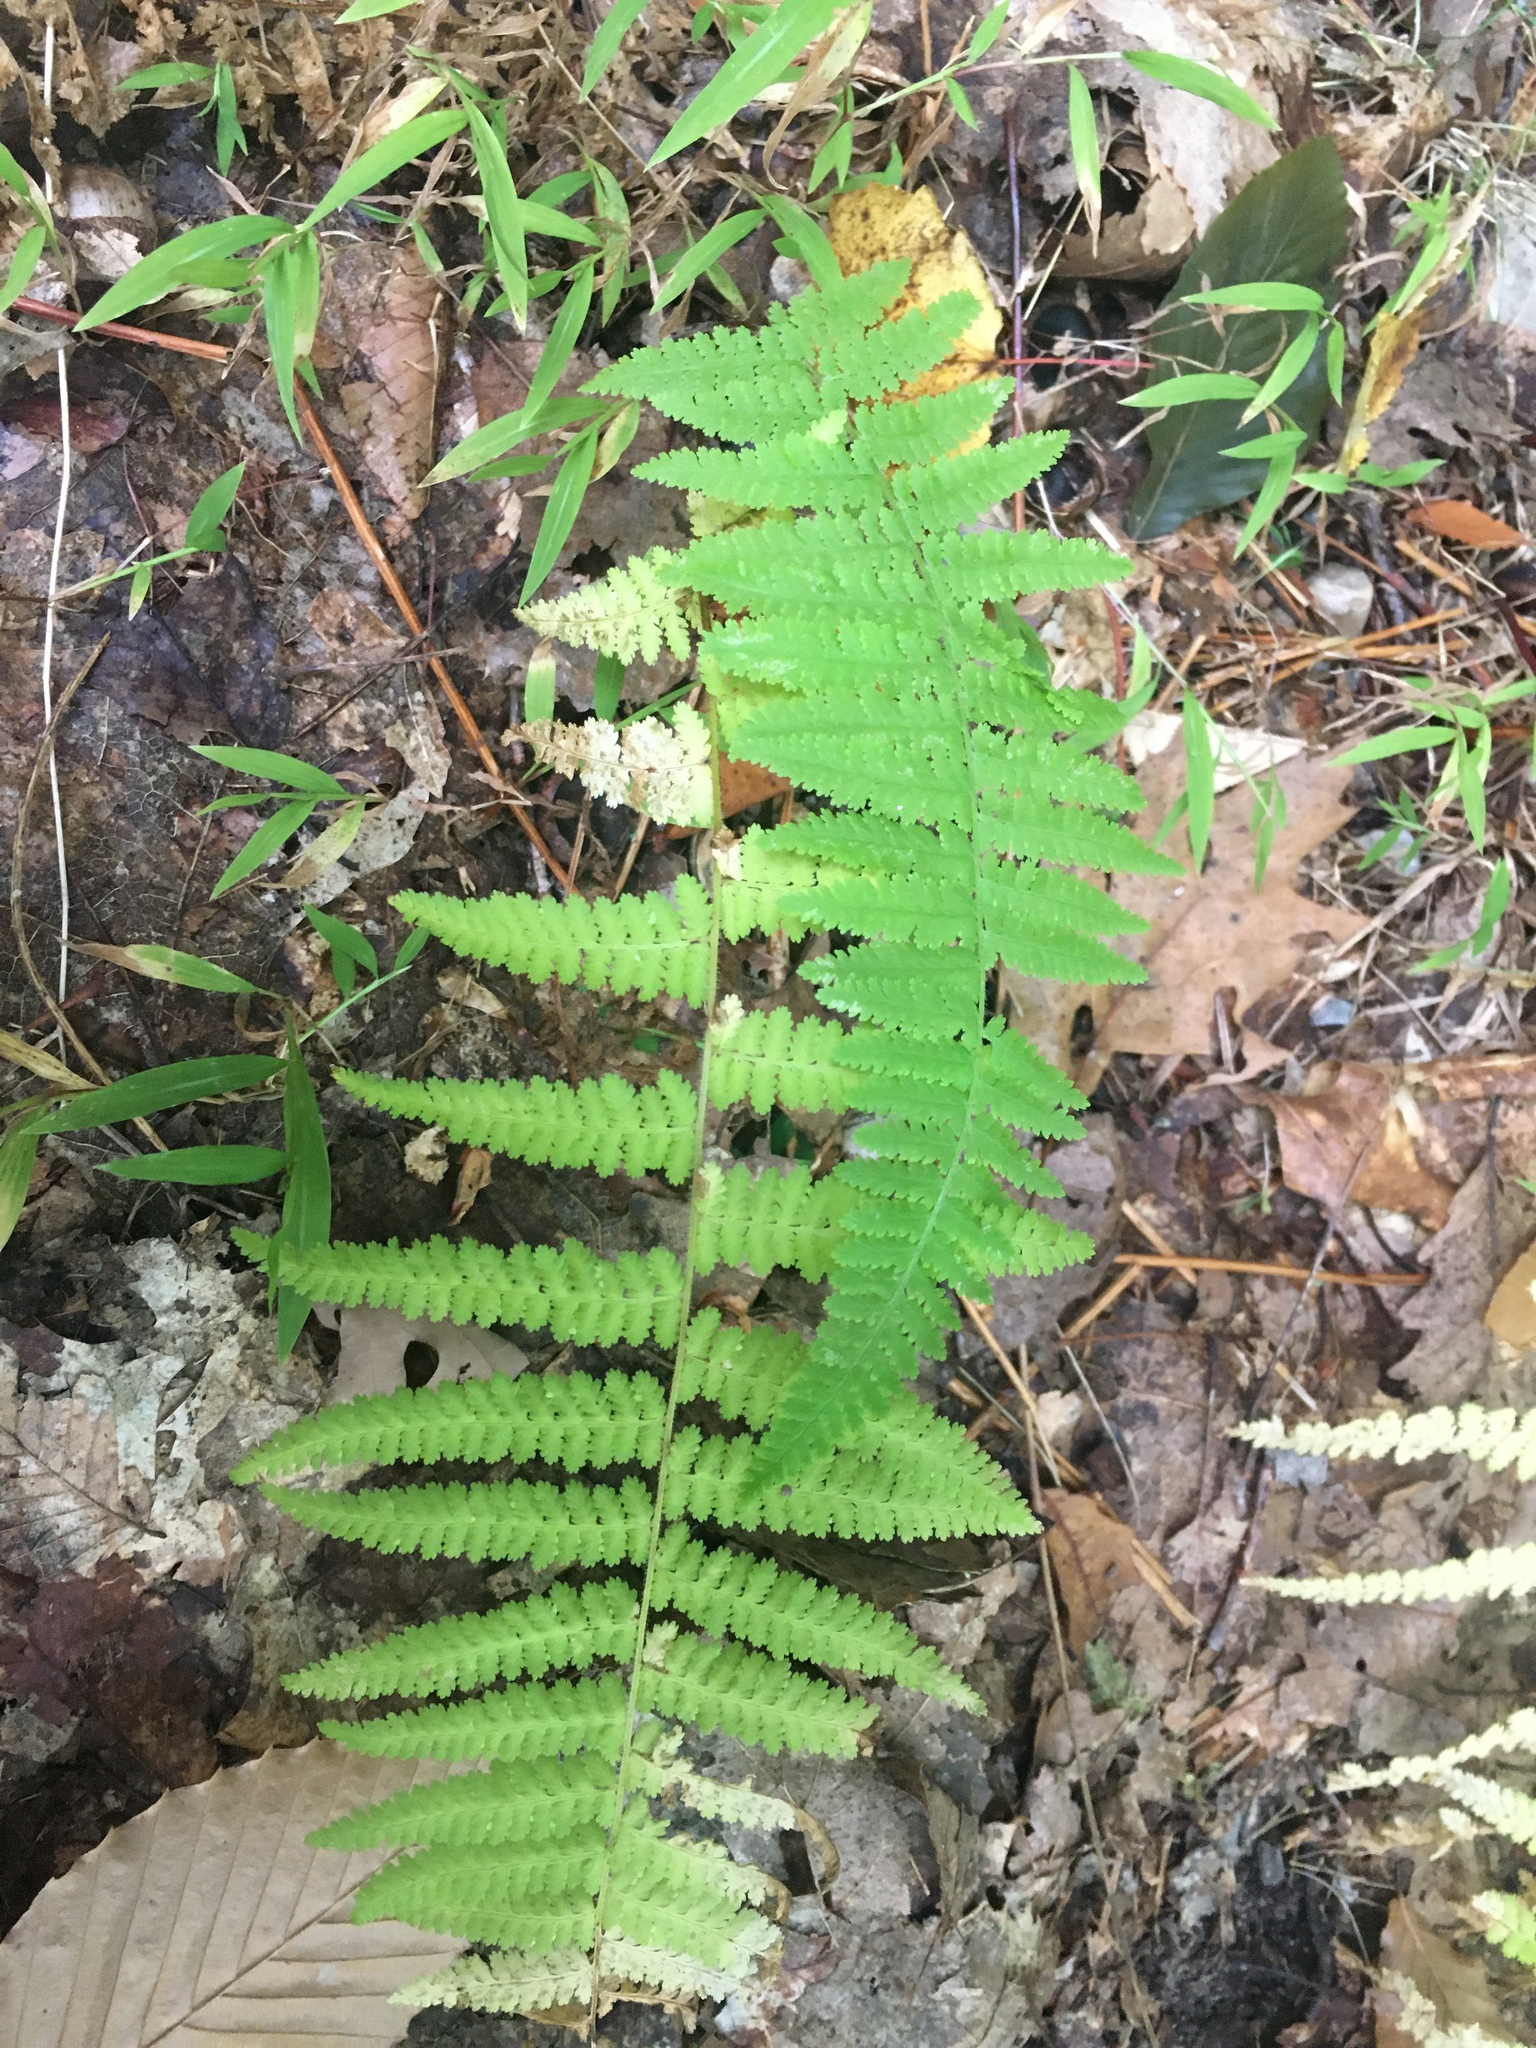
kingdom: Plantae
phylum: Tracheophyta
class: Polypodiopsida
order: Polypodiales
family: Dennstaedtiaceae
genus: Sitobolium
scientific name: Sitobolium punctilobum
